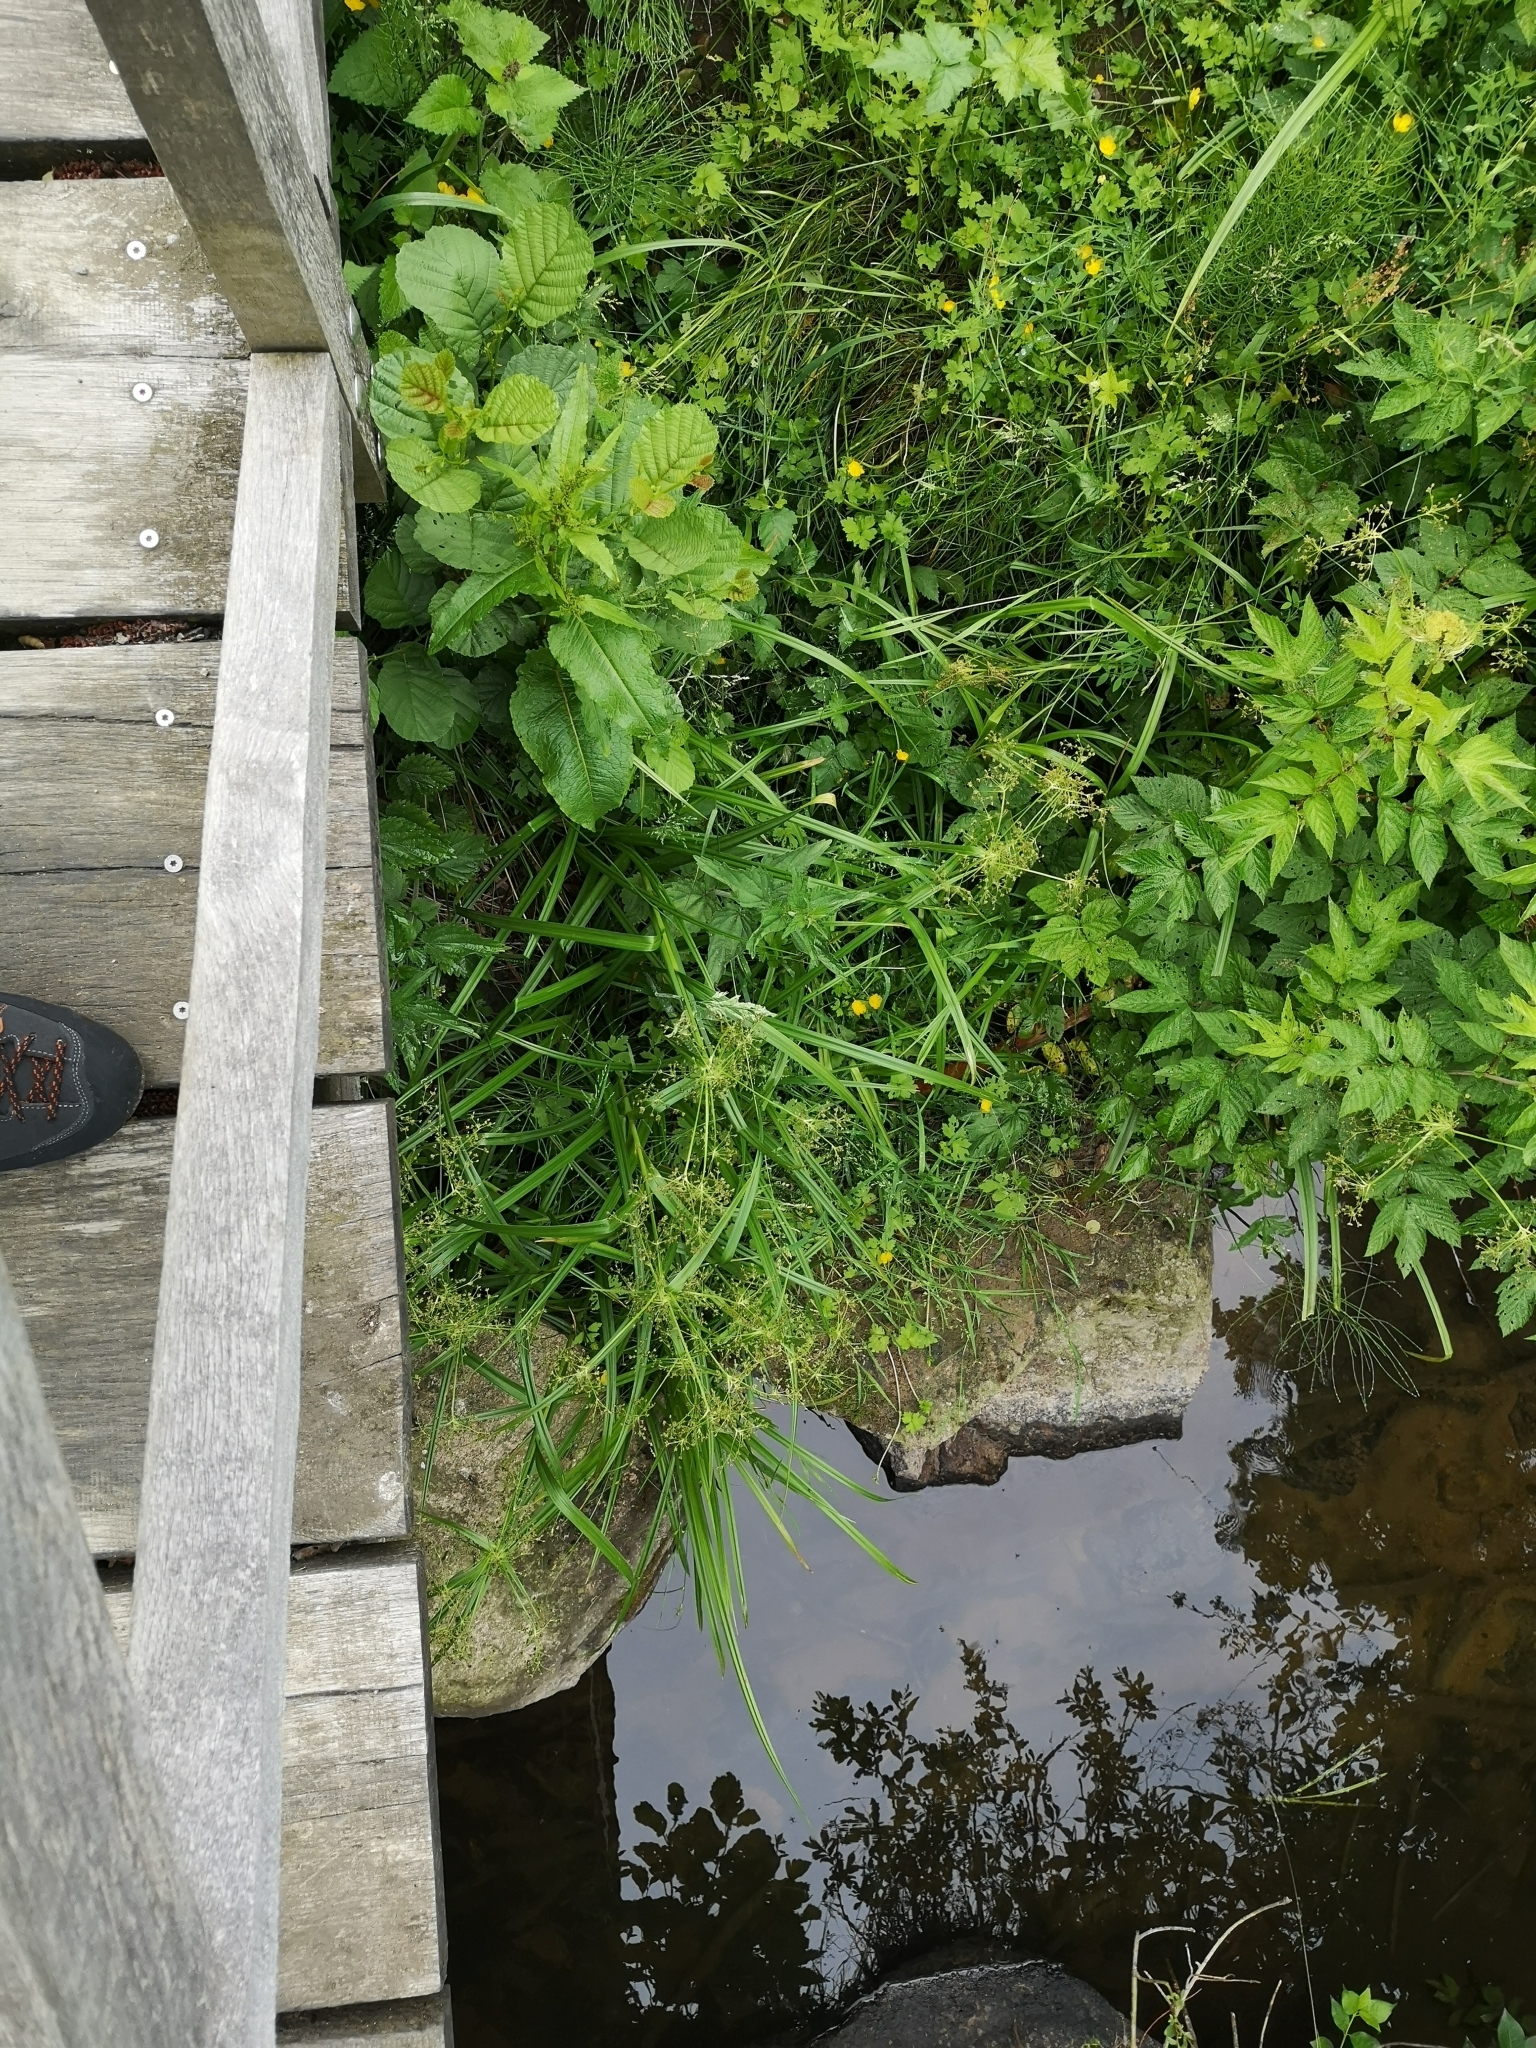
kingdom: Plantae
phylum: Tracheophyta
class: Liliopsida
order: Poales
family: Cyperaceae
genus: Scirpus
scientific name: Scirpus sylvaticus
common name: Wood club-rush
